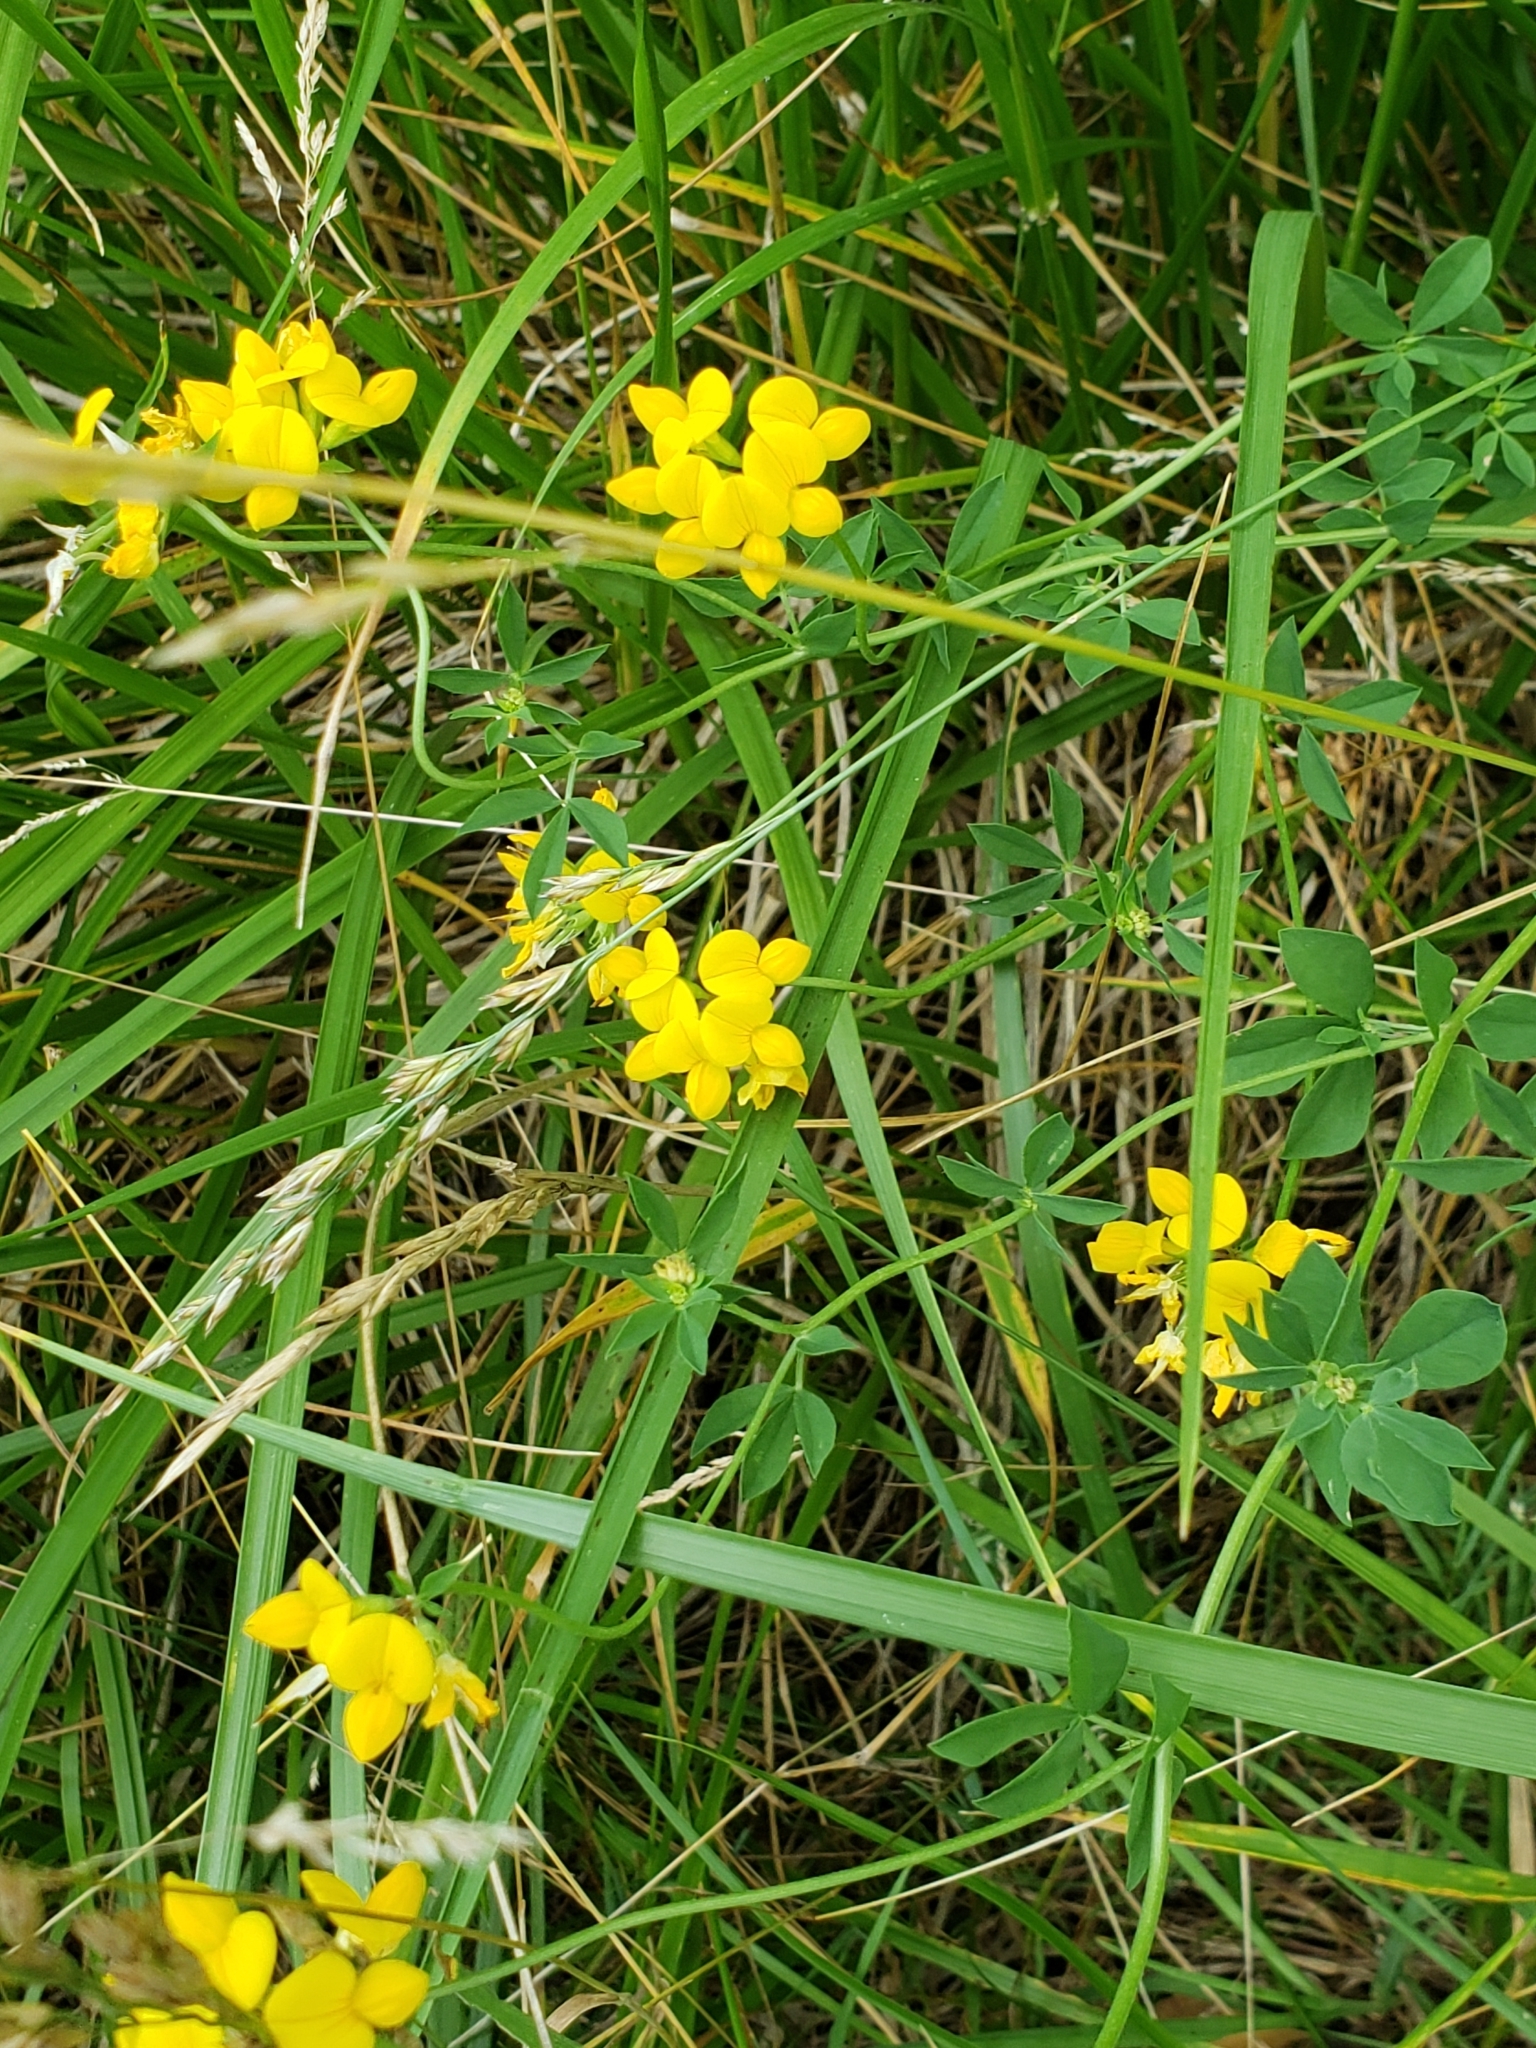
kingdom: Plantae
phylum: Tracheophyta
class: Magnoliopsida
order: Fabales
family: Fabaceae
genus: Lotus
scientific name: Lotus corniculatus
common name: Common bird's-foot-trefoil
